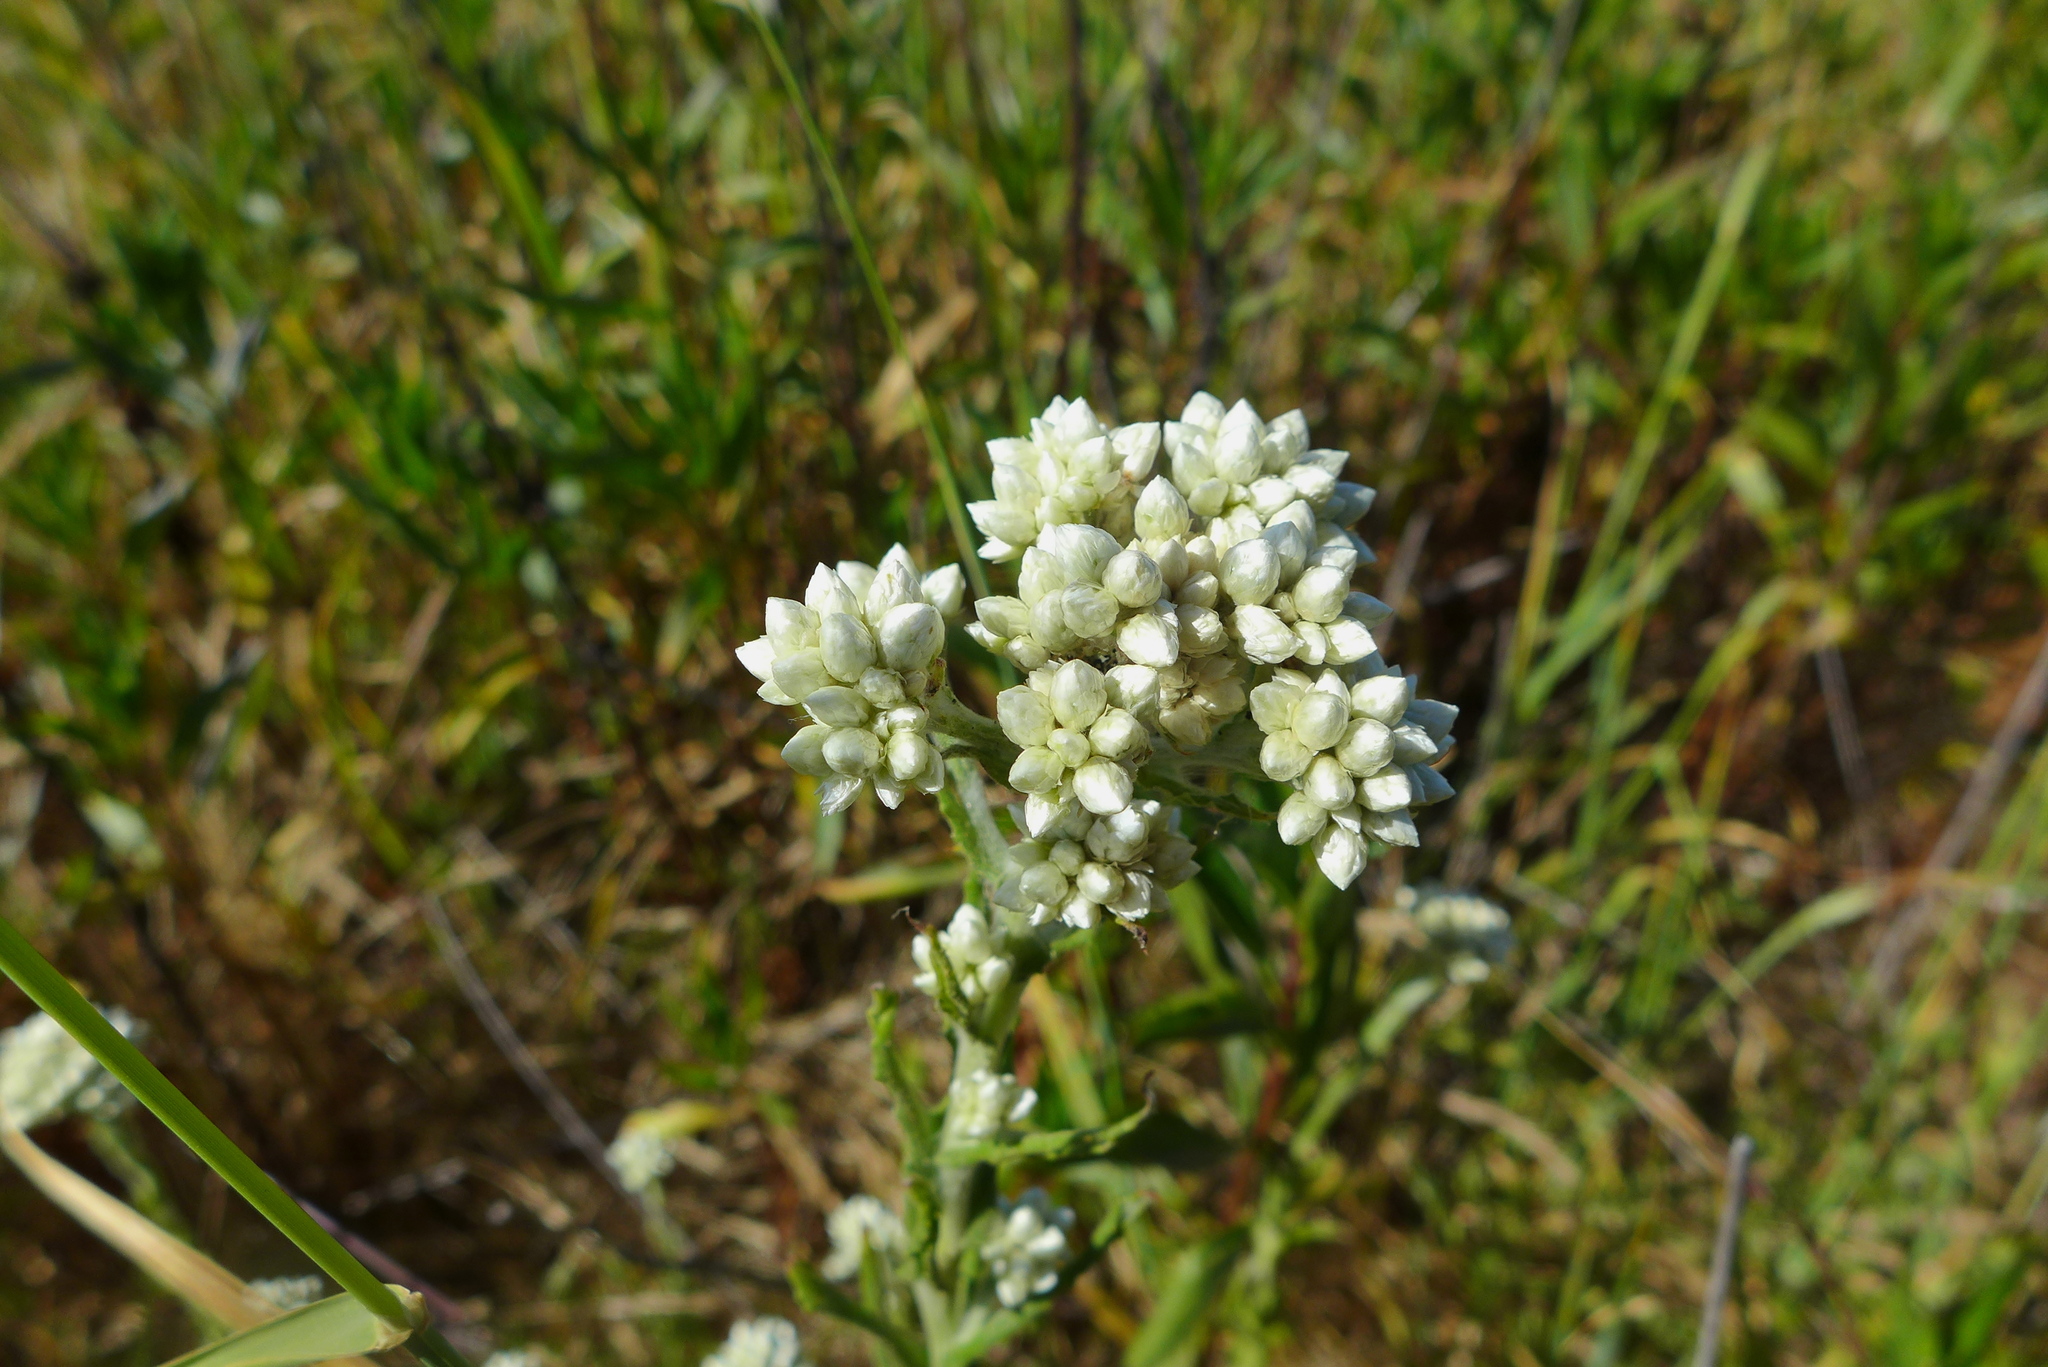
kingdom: Plantae
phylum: Tracheophyta
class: Magnoliopsida
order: Asterales
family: Asteraceae
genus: Pseudognaphalium
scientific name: Pseudognaphalium californicum
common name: California rabbit-tobacco
